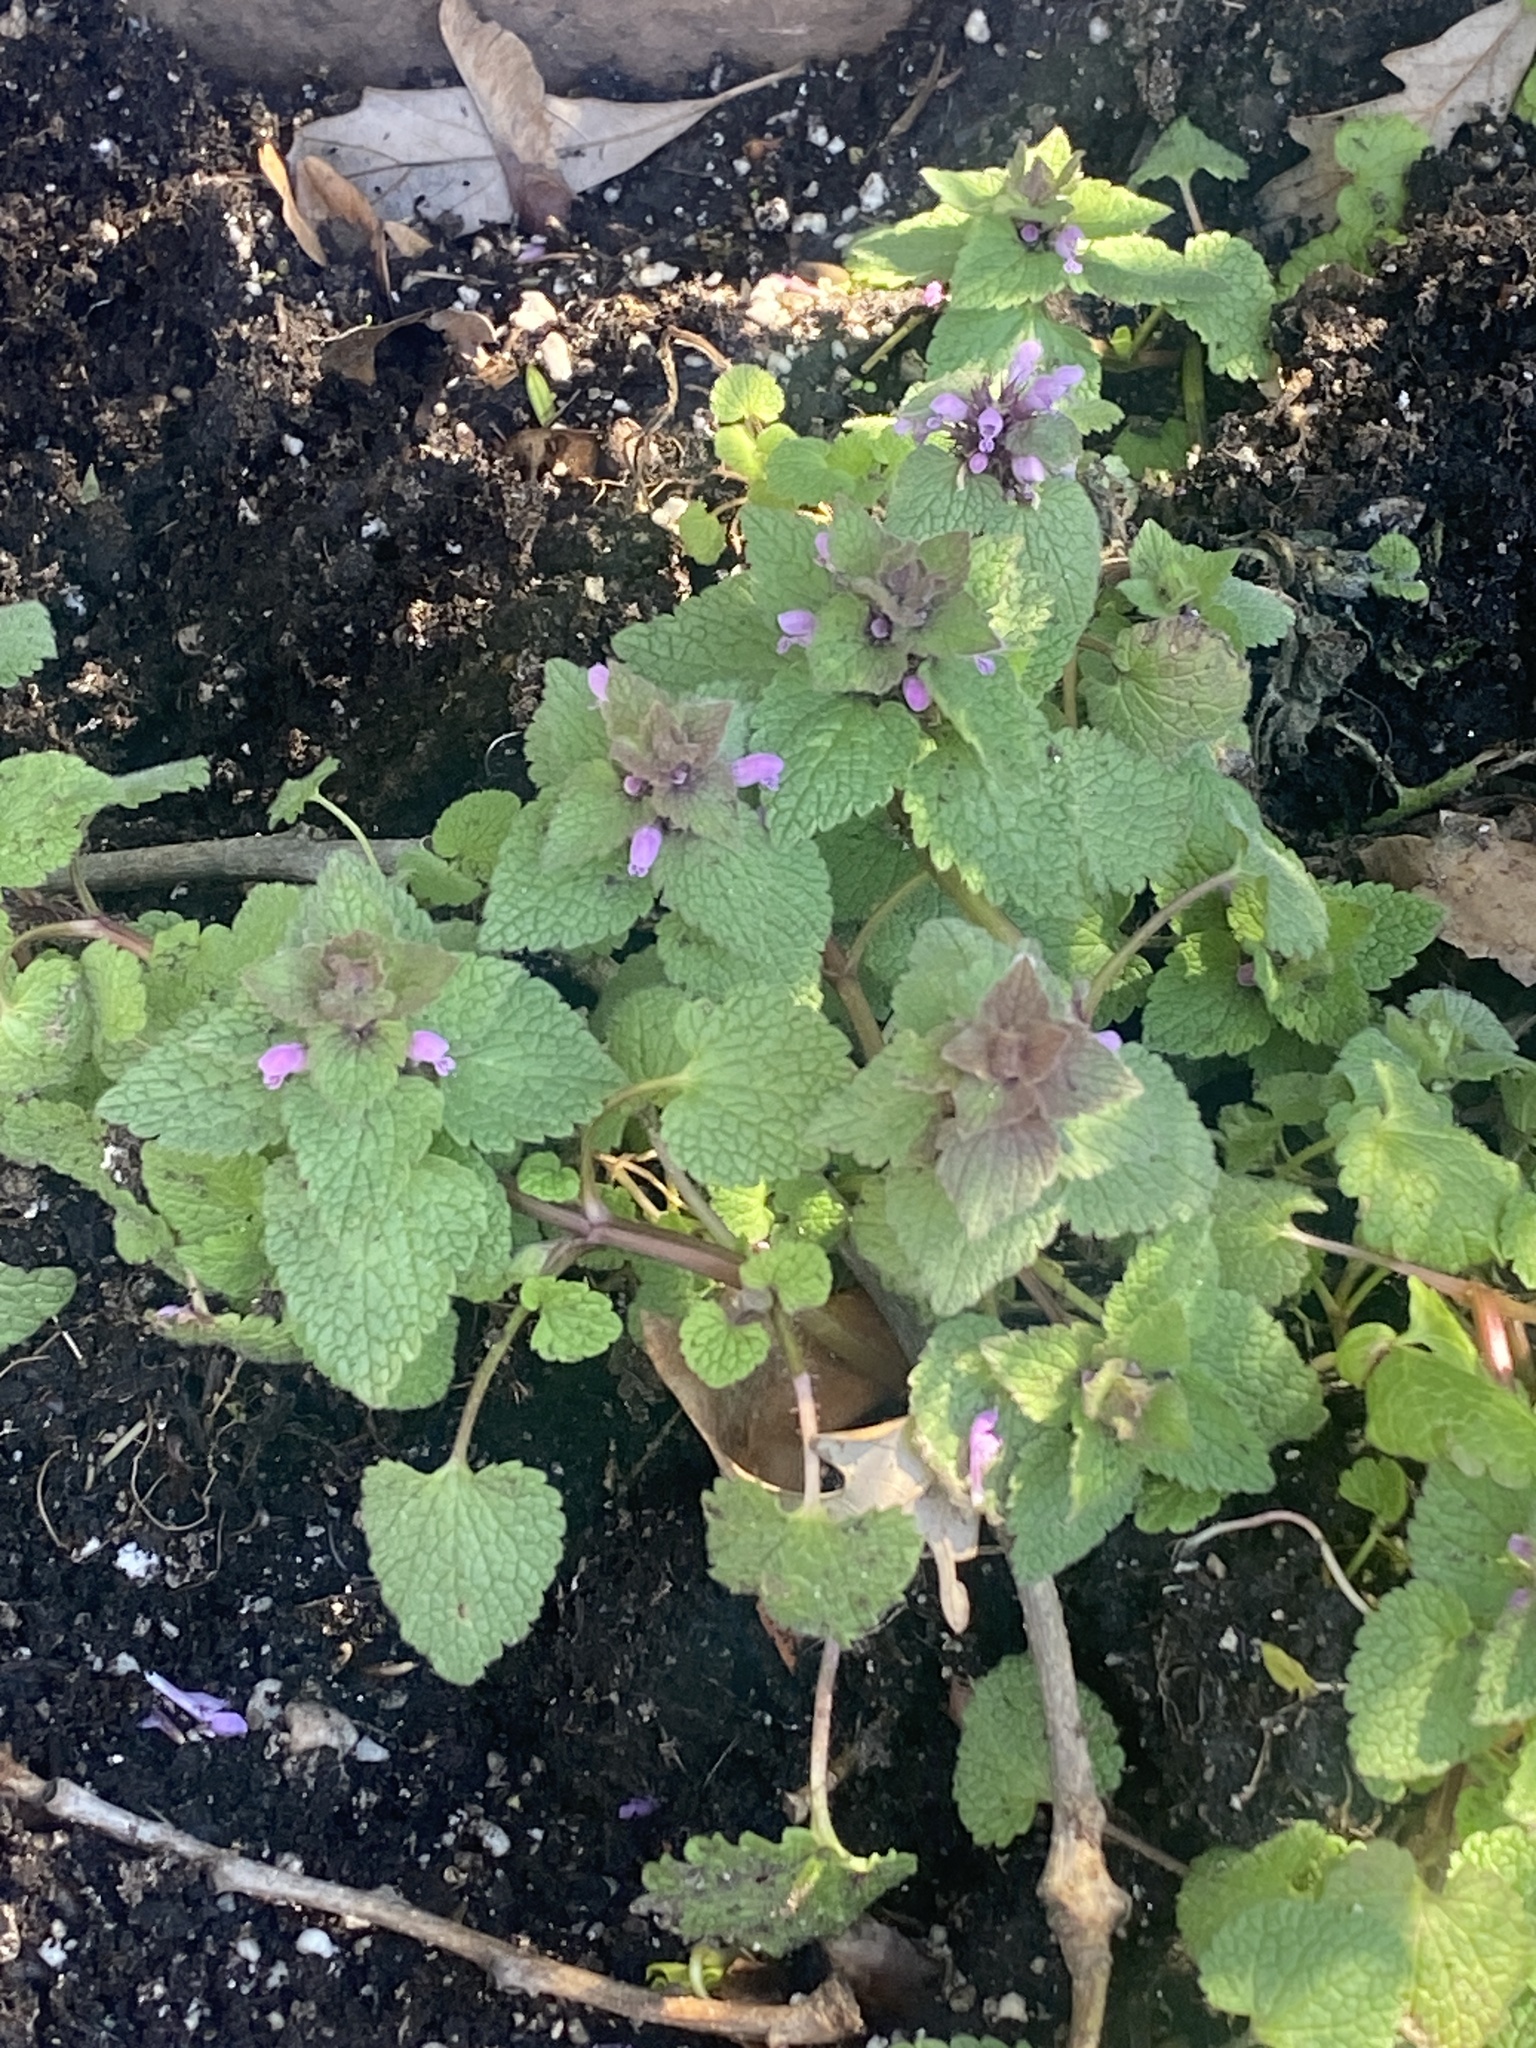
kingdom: Plantae
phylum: Tracheophyta
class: Magnoliopsida
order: Lamiales
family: Lamiaceae
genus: Lamium
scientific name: Lamium purpureum
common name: Red dead-nettle
